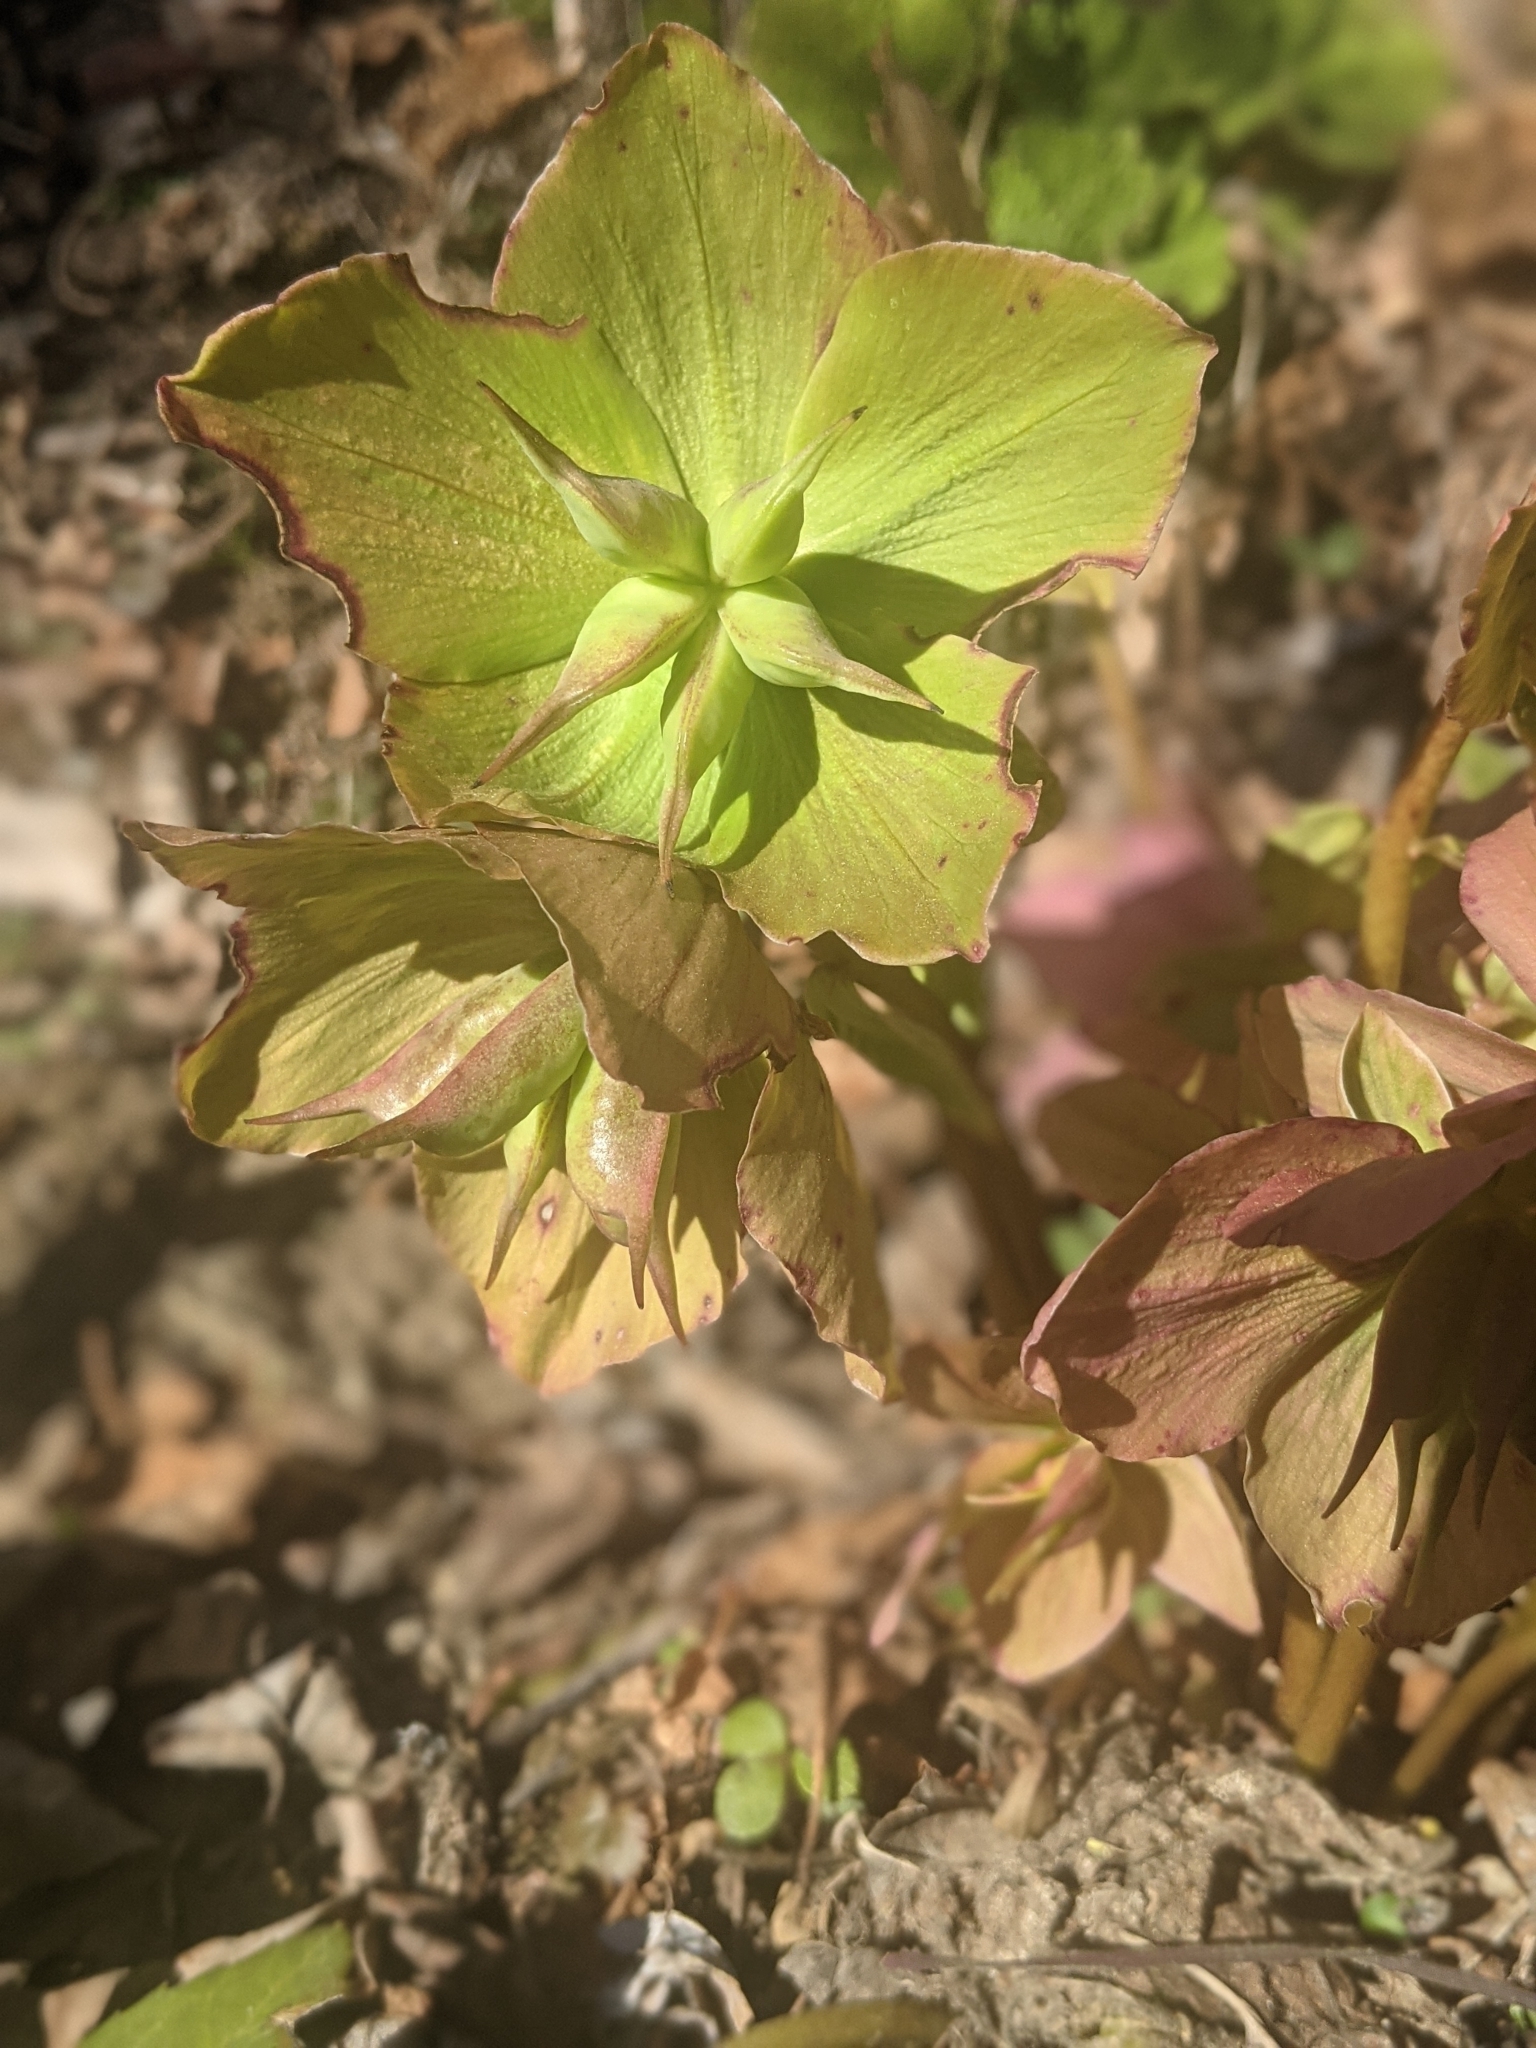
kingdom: Plantae
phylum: Tracheophyta
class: Magnoliopsida
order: Ranunculales
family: Ranunculaceae
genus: Helleborus
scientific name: Helleborus niger
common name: Black hellebore
